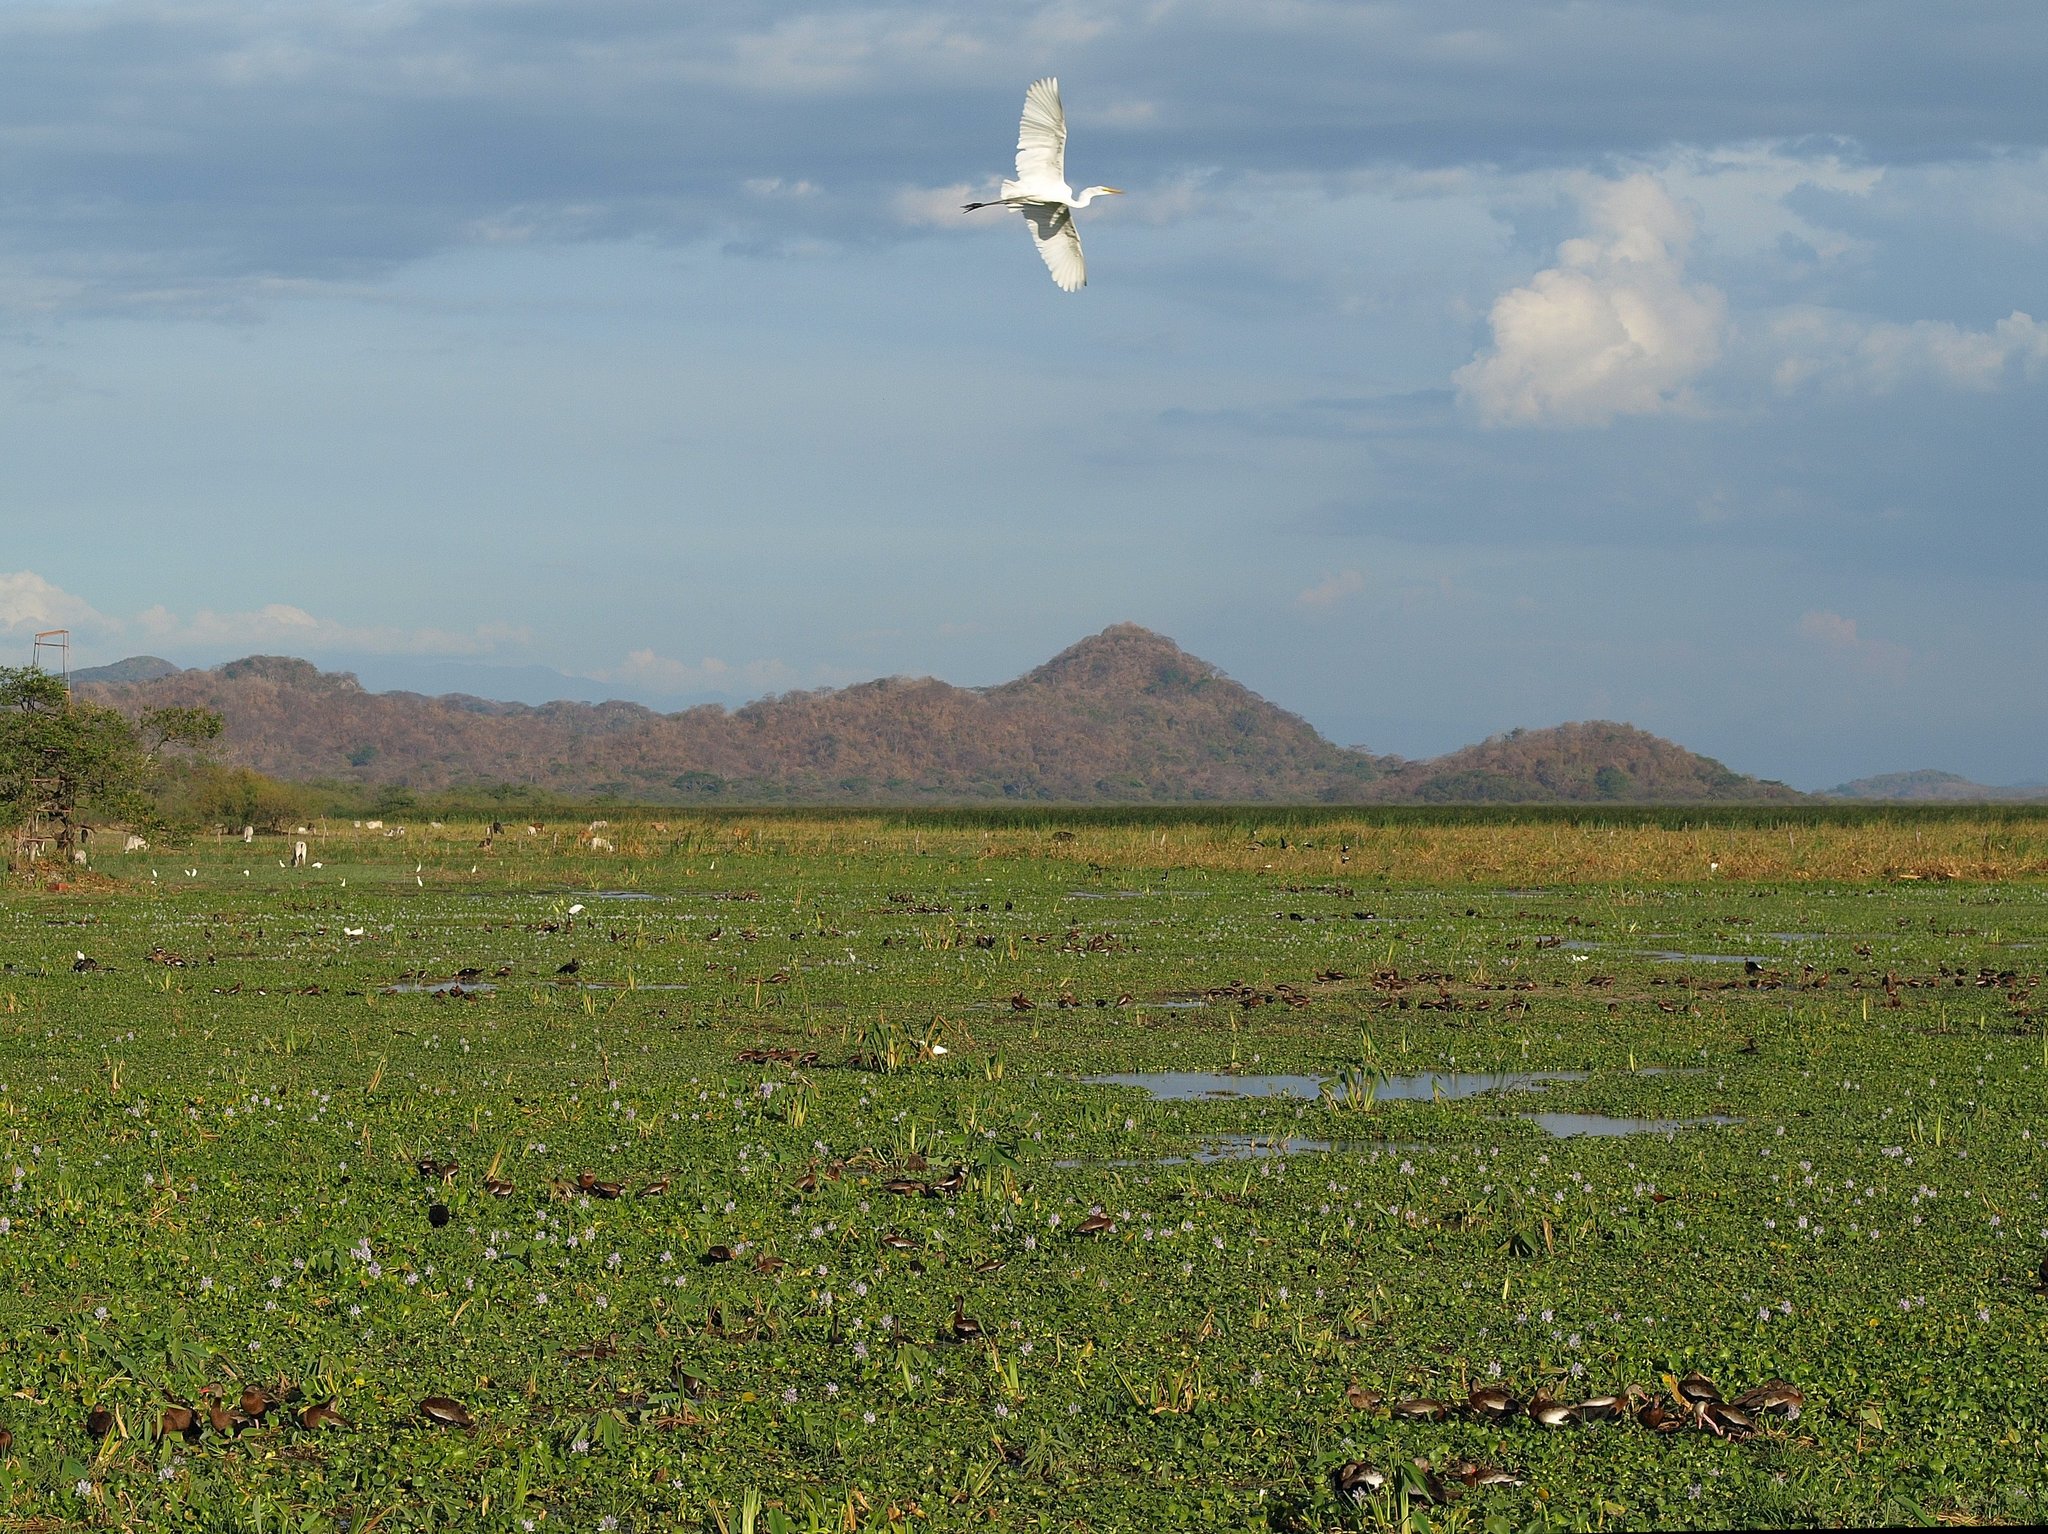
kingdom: Animalia
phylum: Chordata
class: Aves
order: Pelecaniformes
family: Ardeidae
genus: Ardea
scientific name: Ardea alba
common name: Great egret
